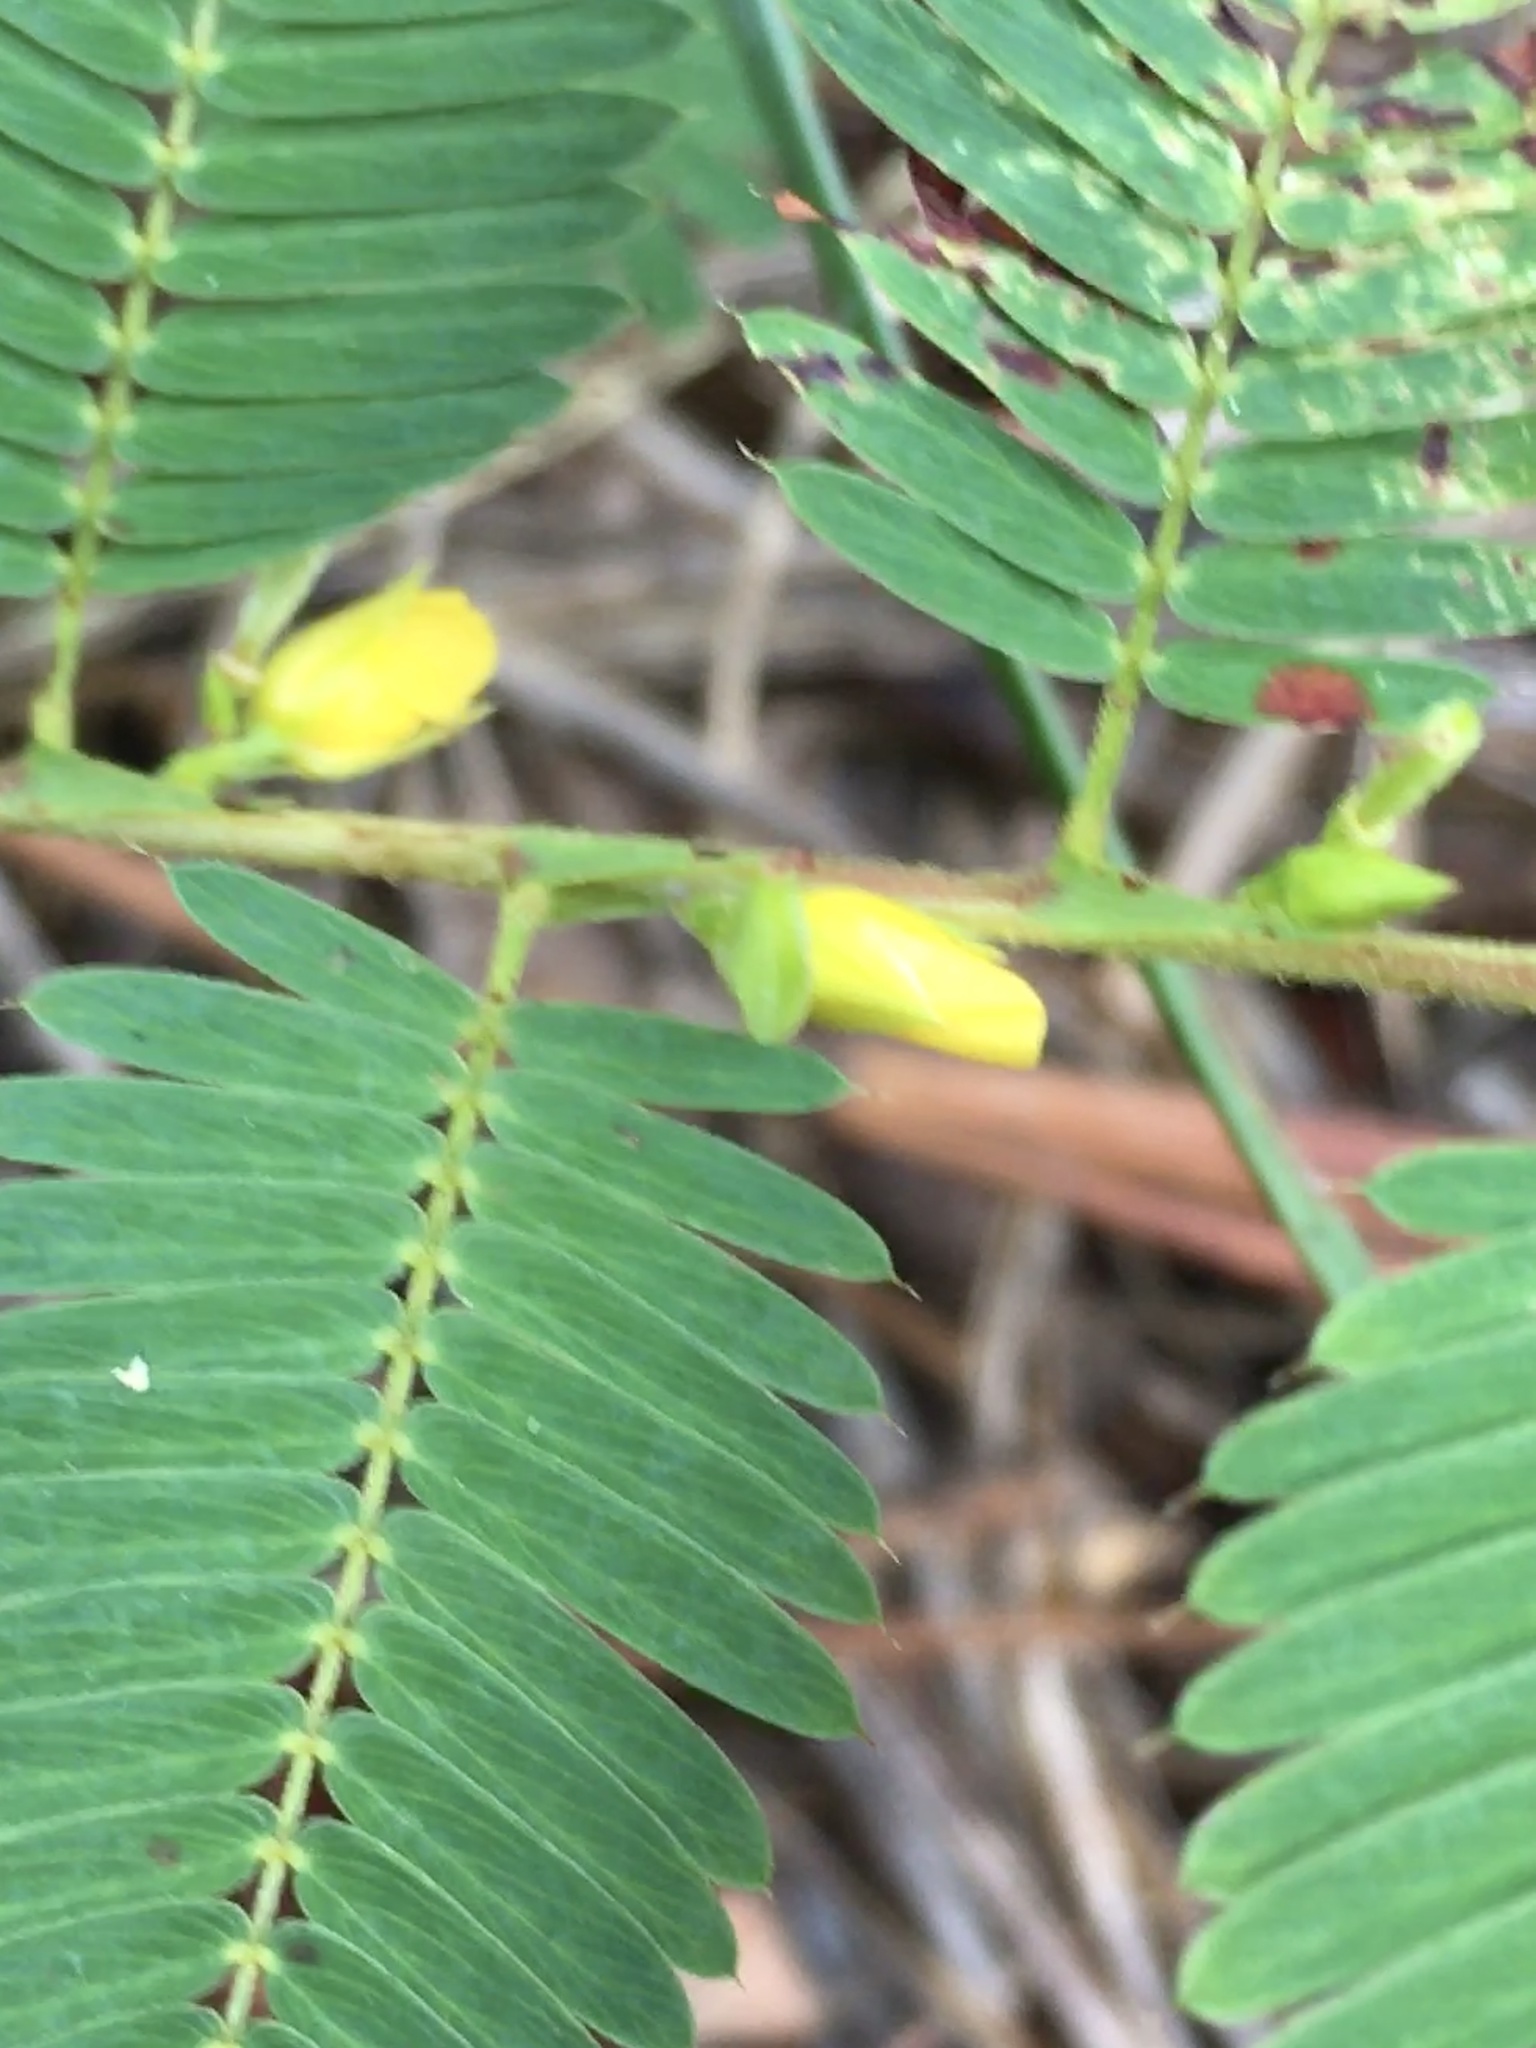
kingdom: Plantae
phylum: Tracheophyta
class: Magnoliopsida
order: Fabales
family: Fabaceae
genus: Chamaecrista
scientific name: Chamaecrista nictitans
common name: Sensitive cassia
